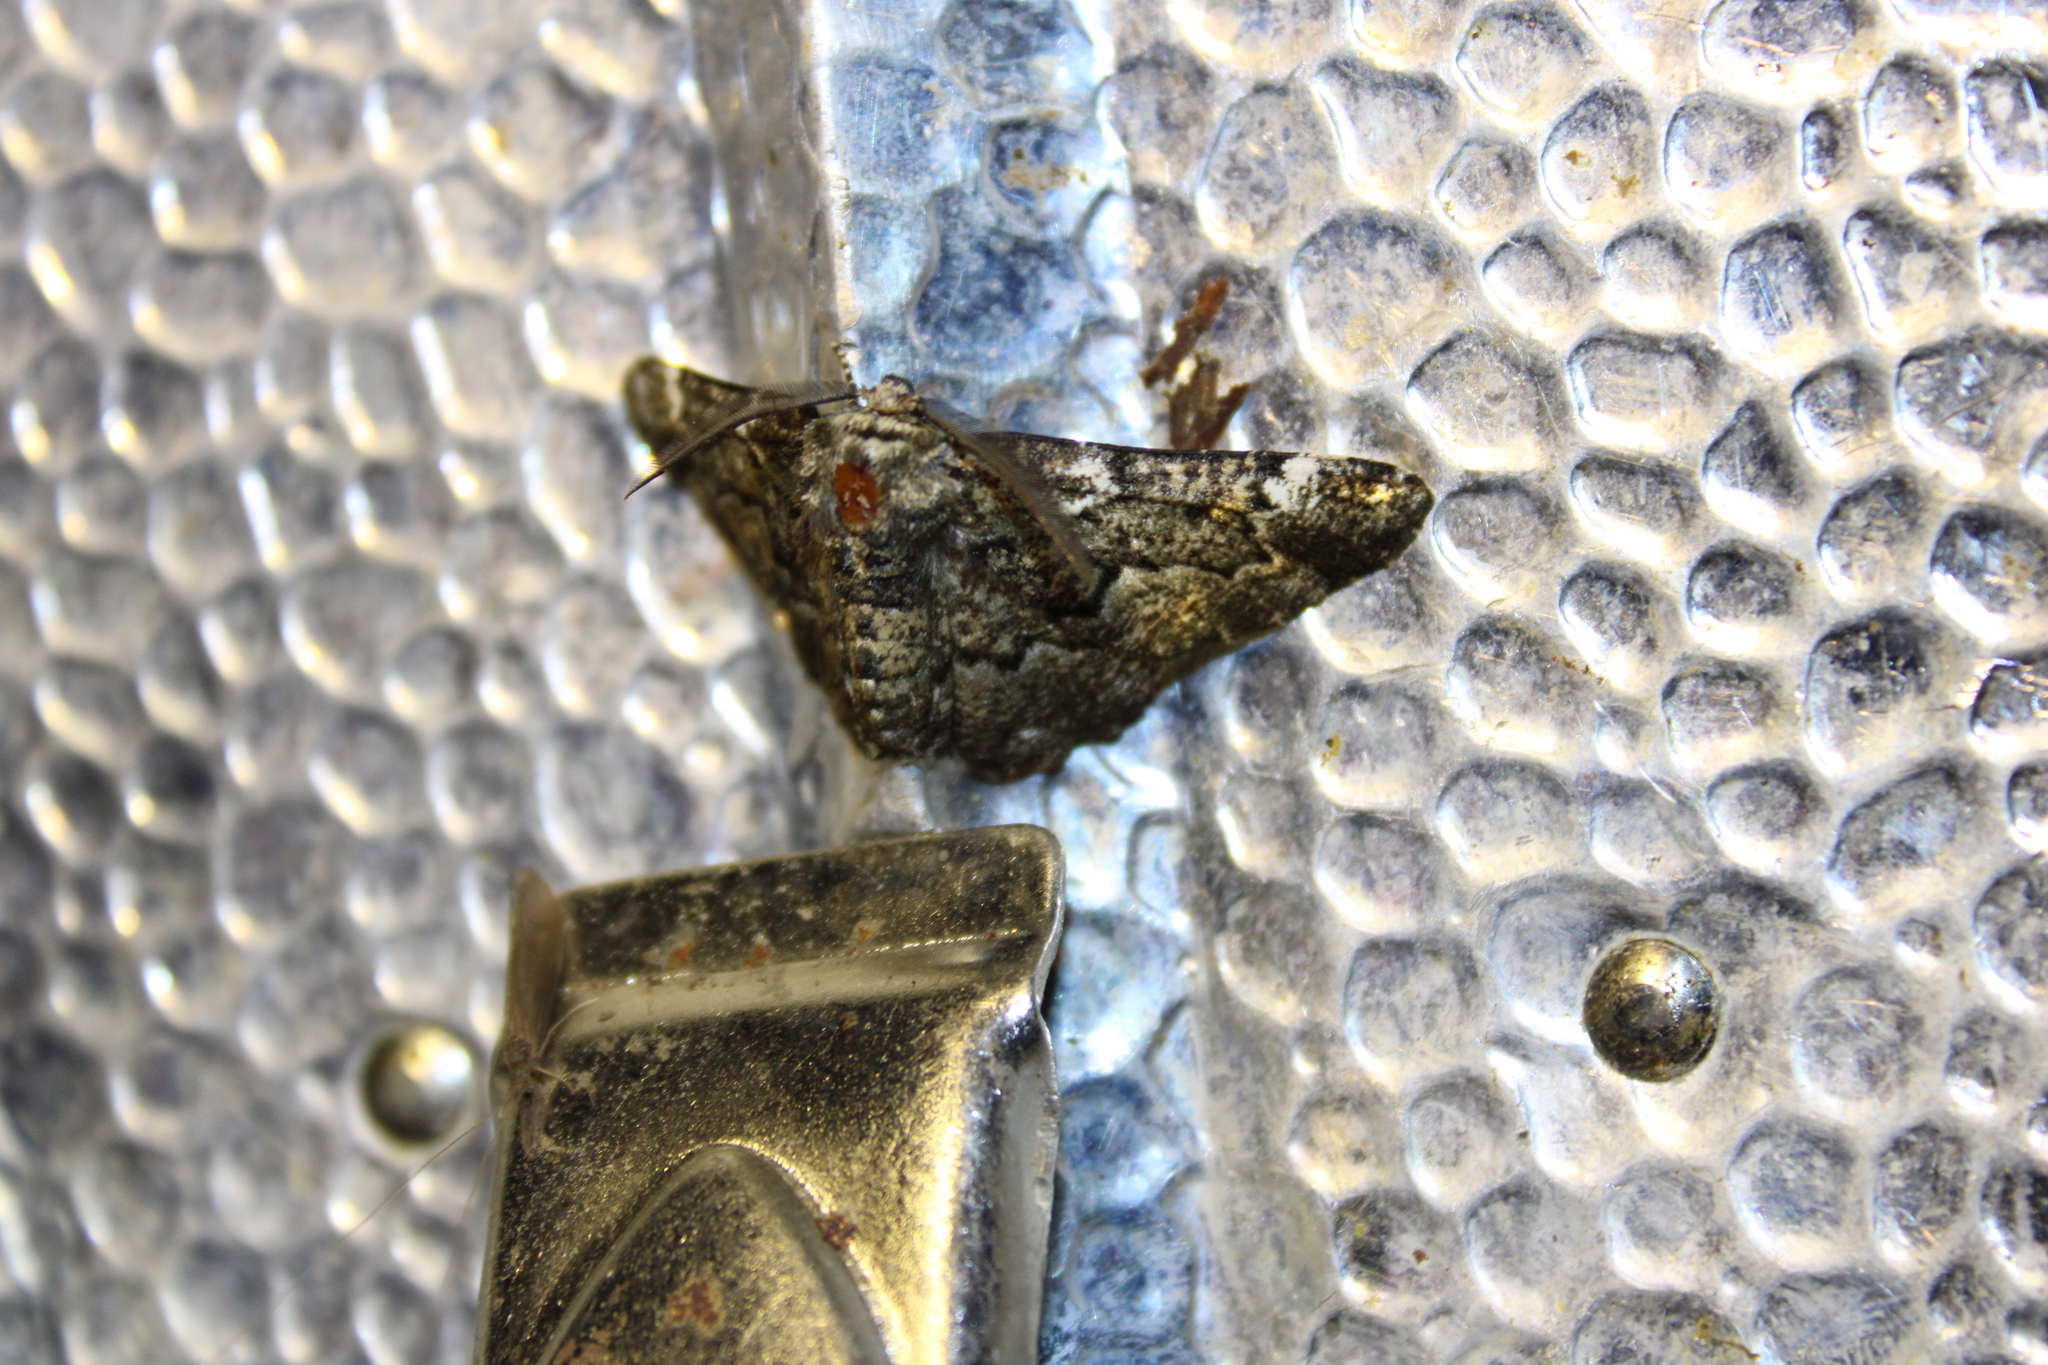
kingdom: Animalia
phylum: Arthropoda
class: Insecta
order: Lepidoptera
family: Geometridae
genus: Phaeoura
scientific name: Phaeoura quernaria
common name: Oak beauty
